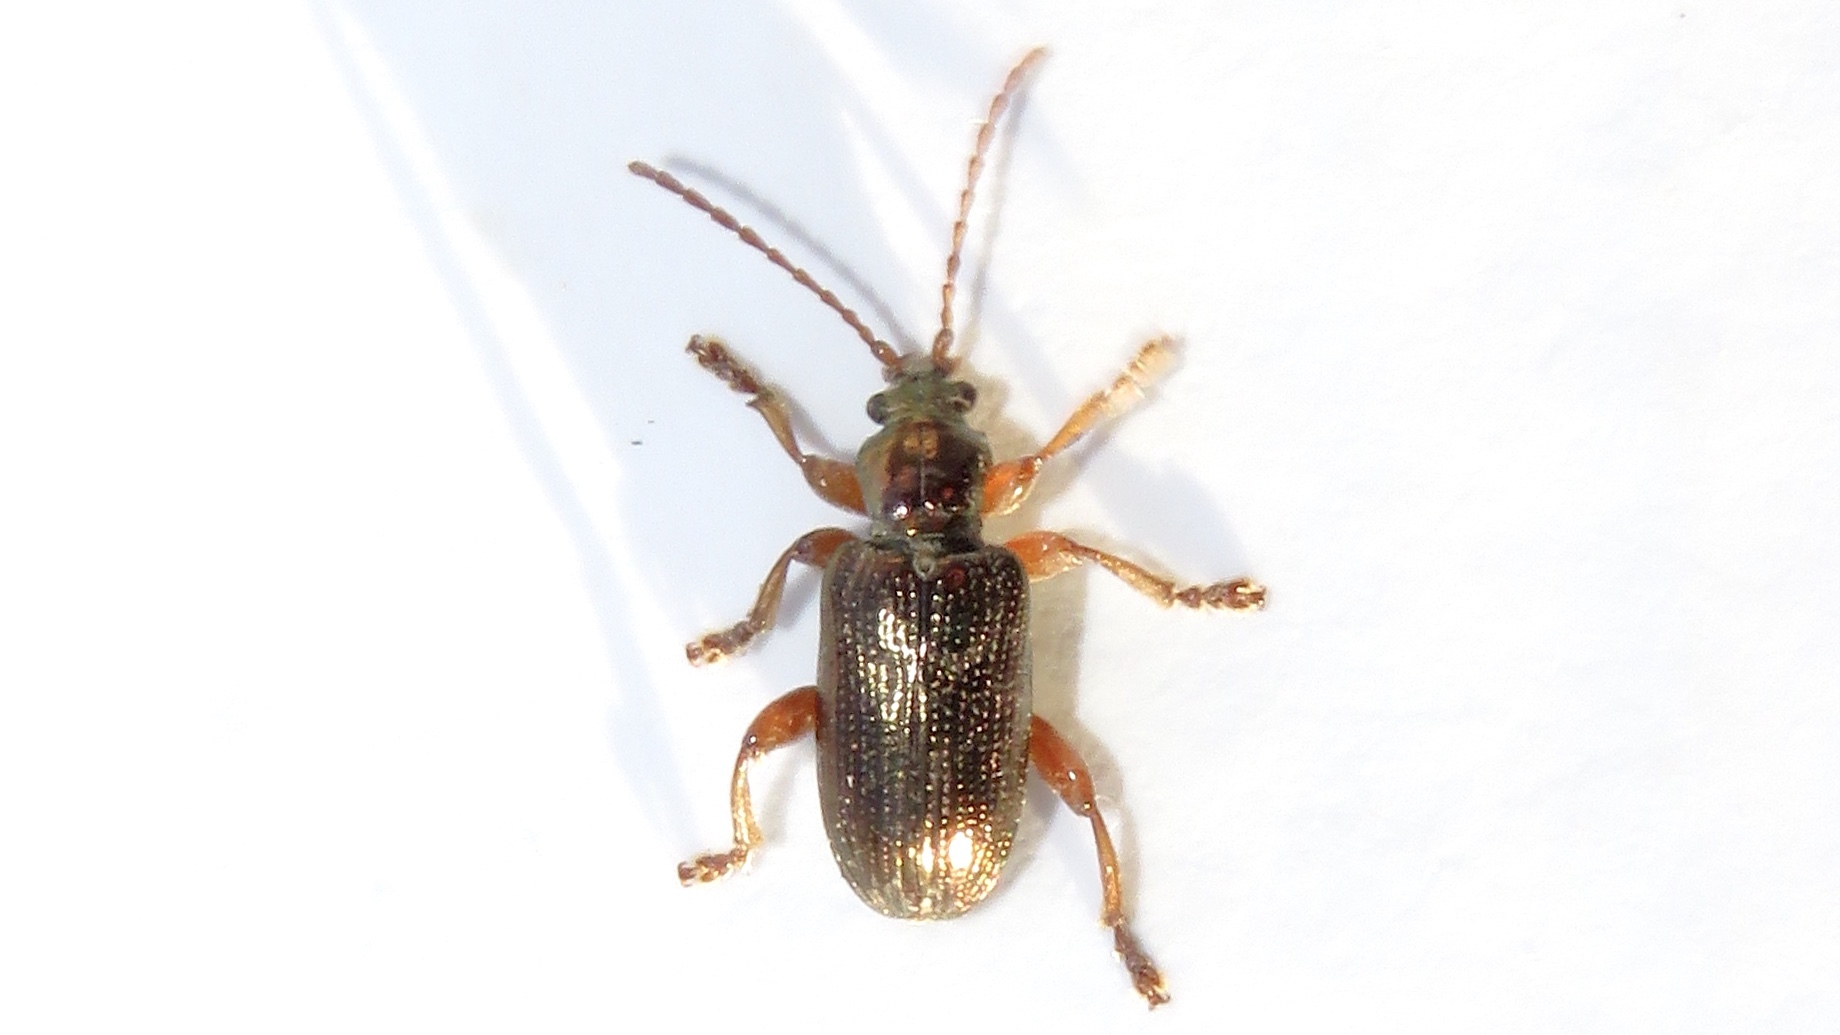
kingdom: Animalia
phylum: Arthropoda
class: Insecta
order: Coleoptera
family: Chrysomelidae
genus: Plateumaris
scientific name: Plateumaris rufa
